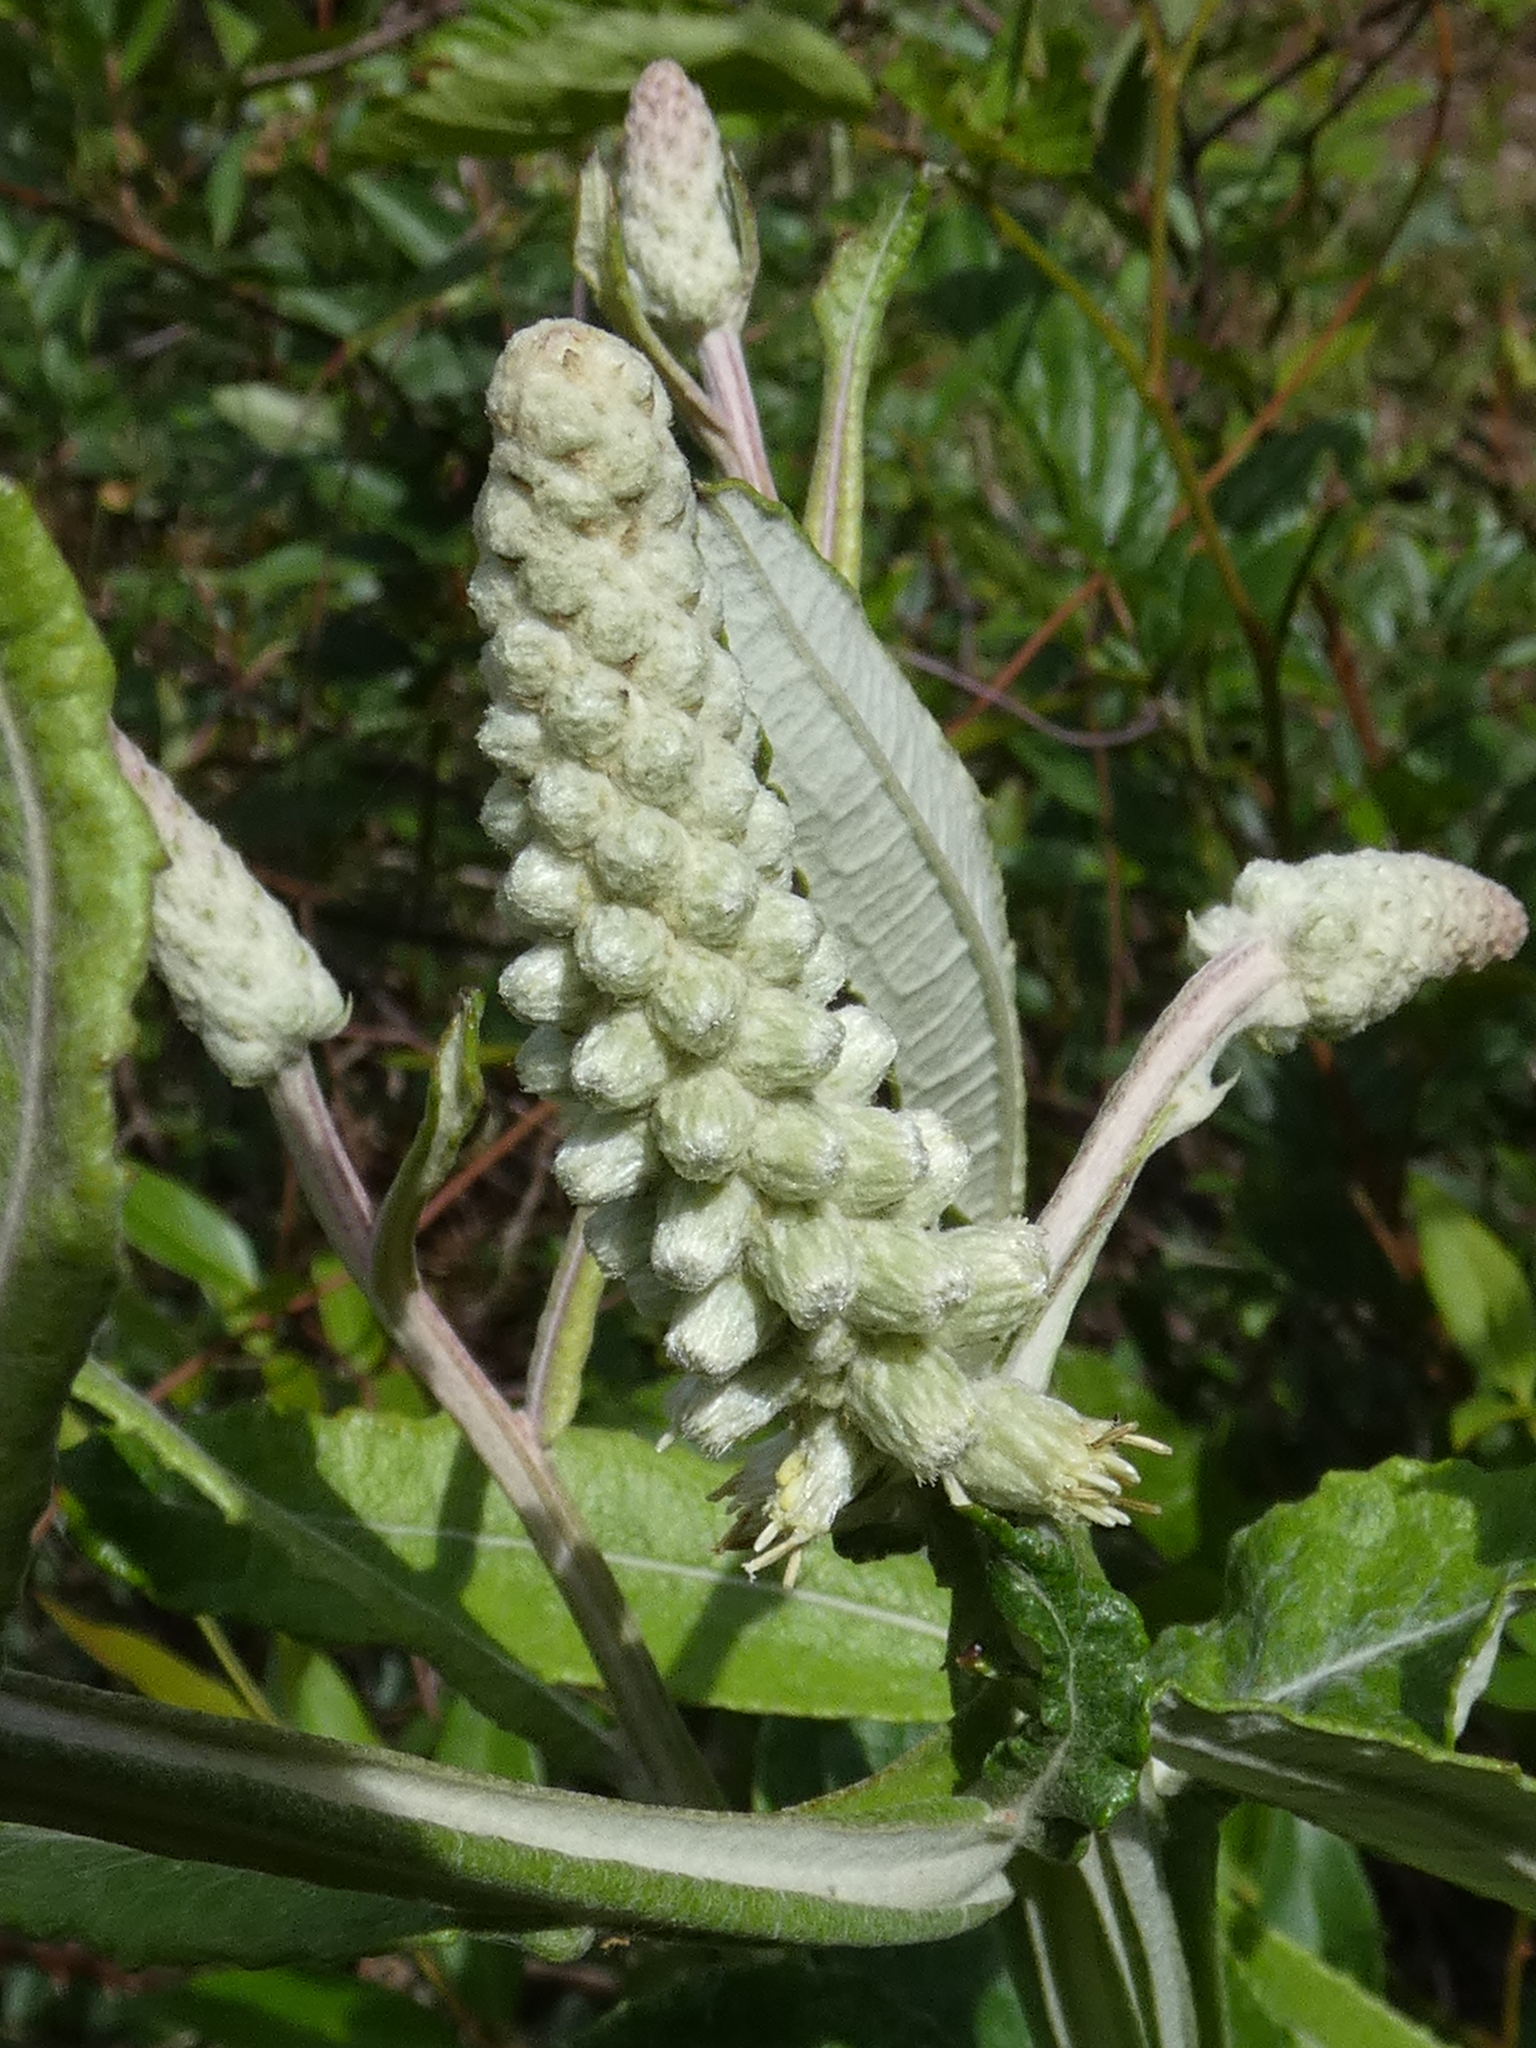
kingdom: Plantae
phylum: Tracheophyta
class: Magnoliopsida
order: Asterales
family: Asteraceae
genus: Pterocaulon
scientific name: Pterocaulon pycnostachyum
